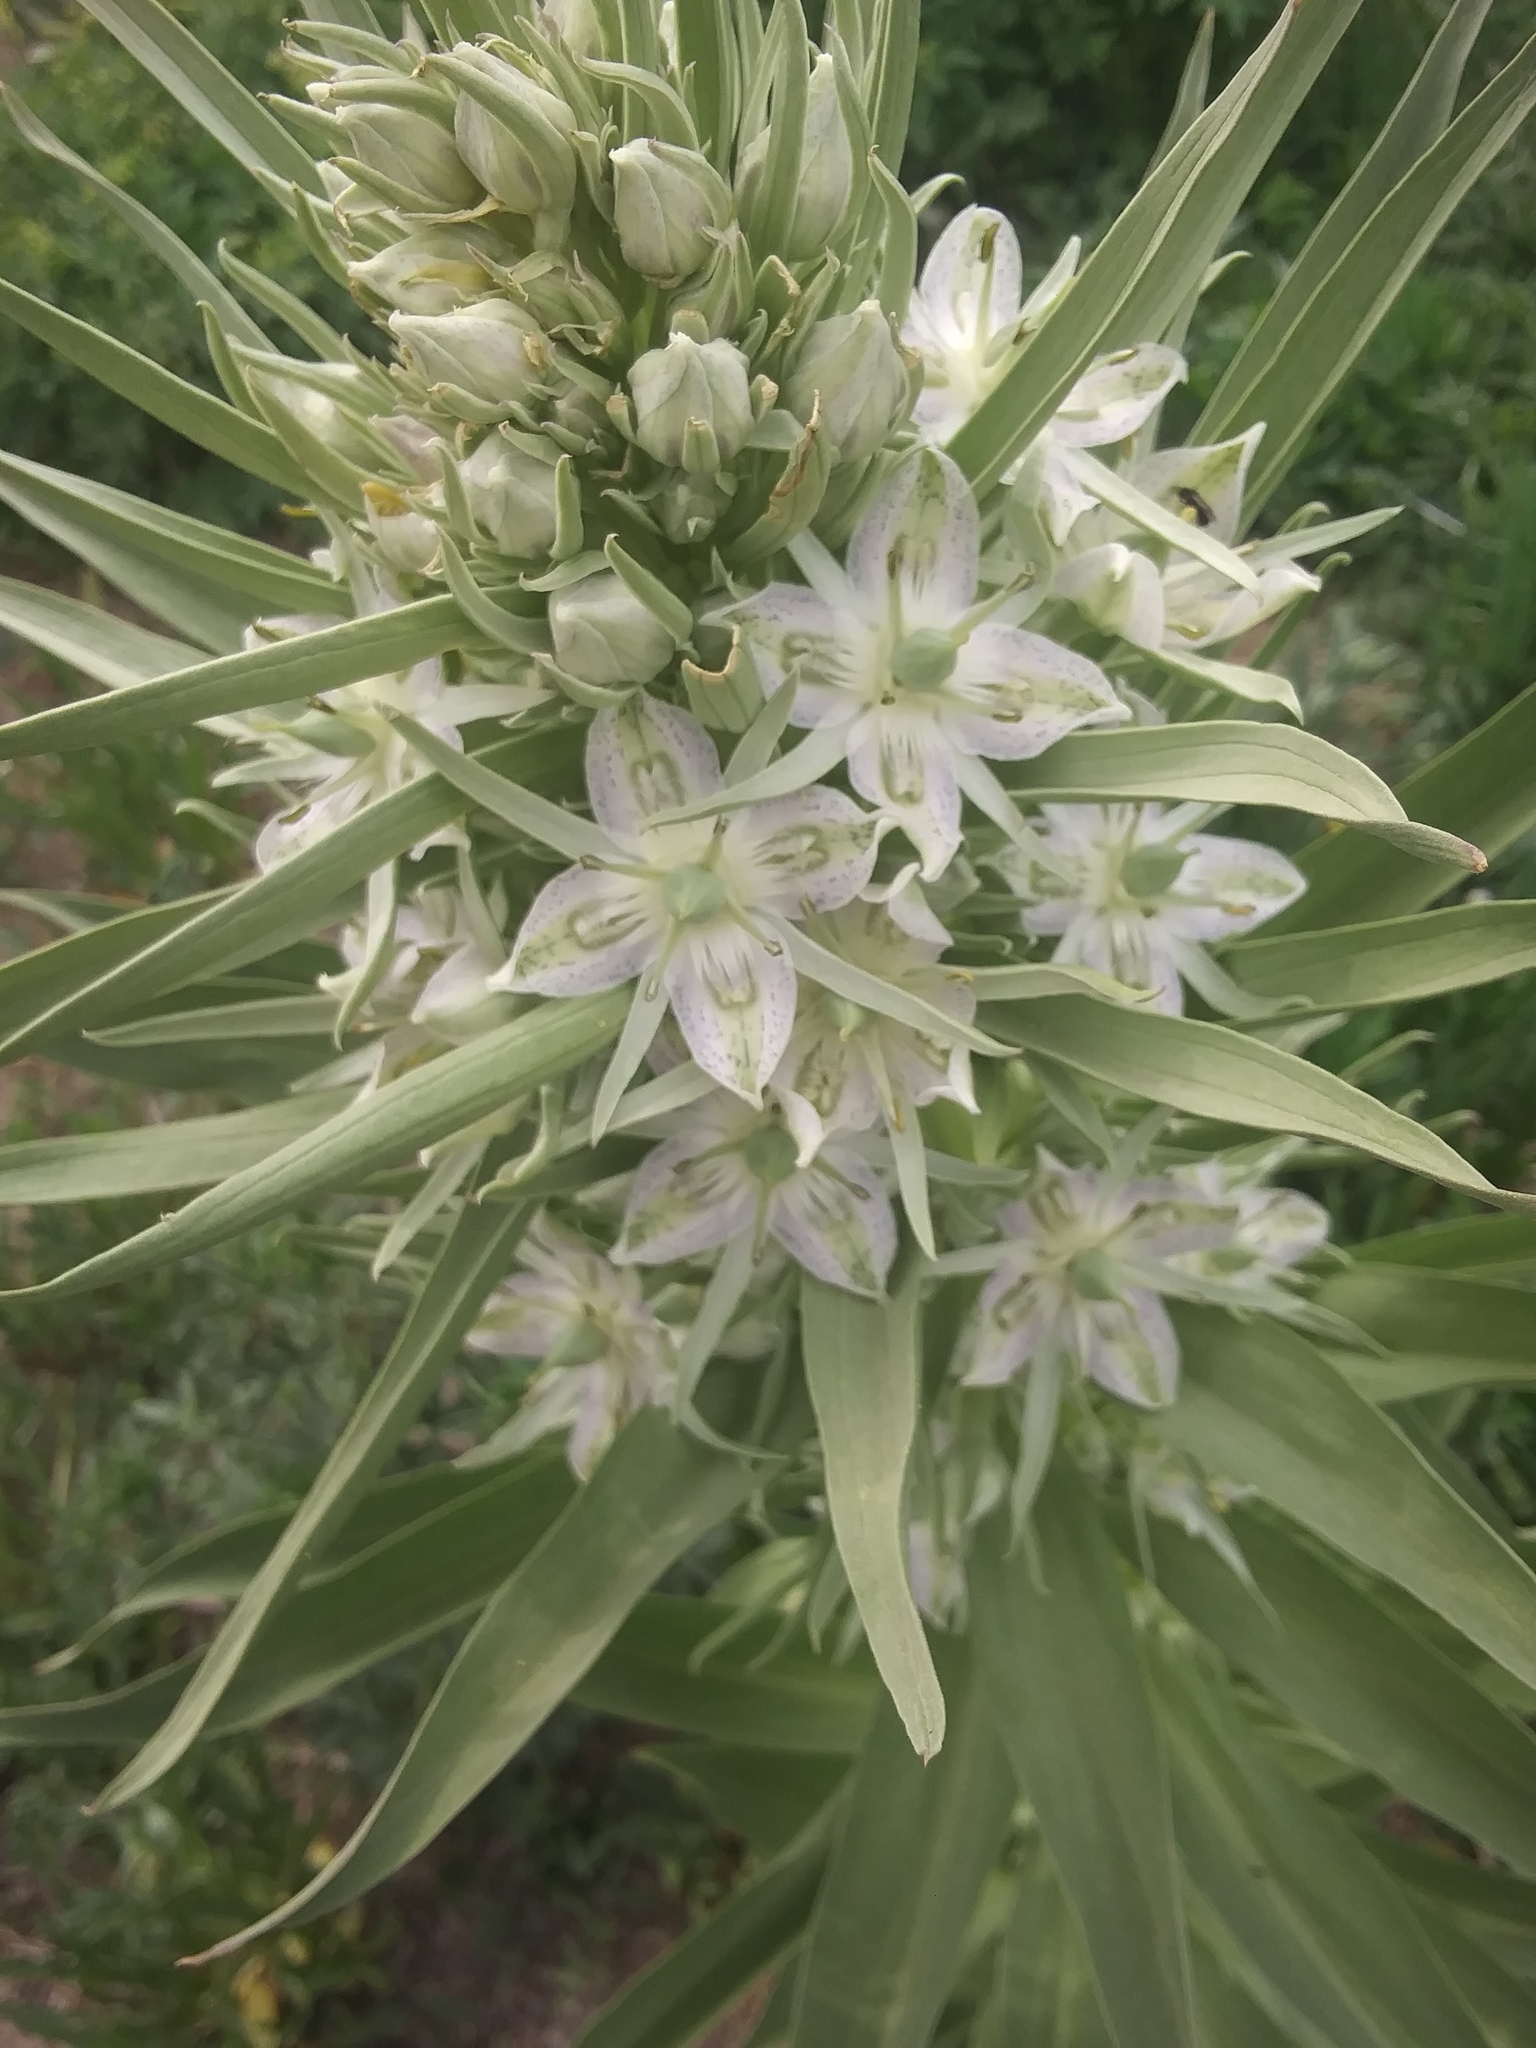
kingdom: Plantae
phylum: Tracheophyta
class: Magnoliopsida
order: Gentianales
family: Gentianaceae
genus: Frasera
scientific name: Frasera speciosa
